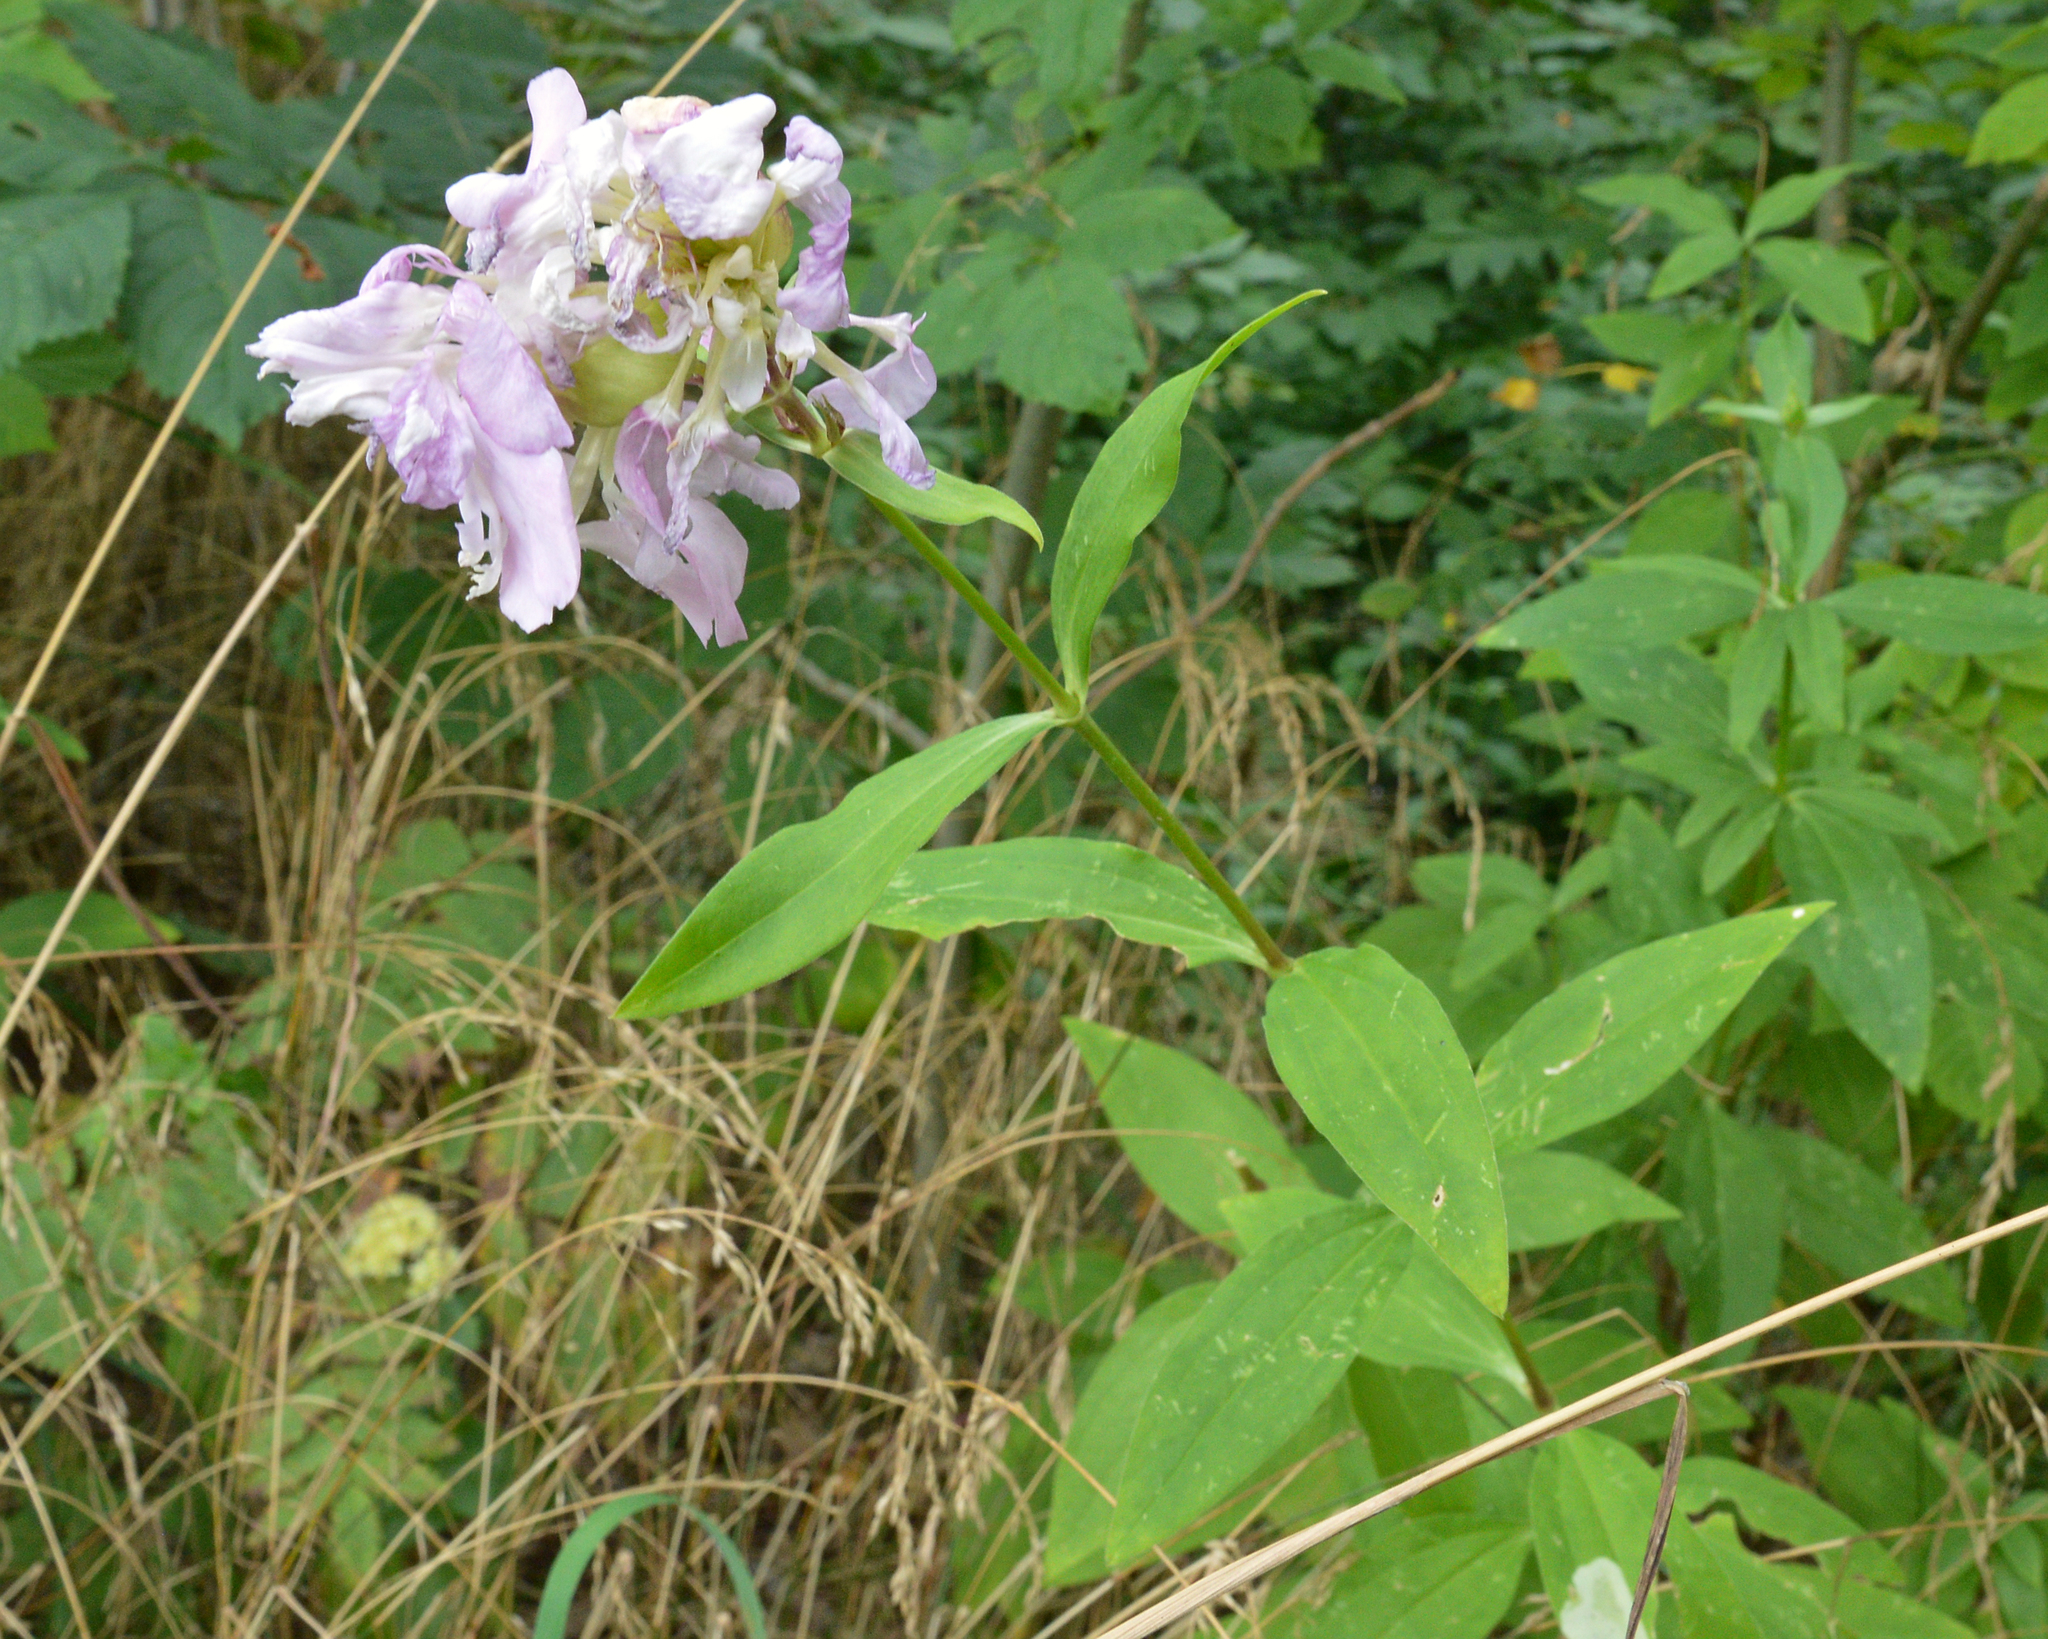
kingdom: Plantae
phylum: Tracheophyta
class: Magnoliopsida
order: Caryophyllales
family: Caryophyllaceae
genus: Saponaria
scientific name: Saponaria officinalis
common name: Soapwort
